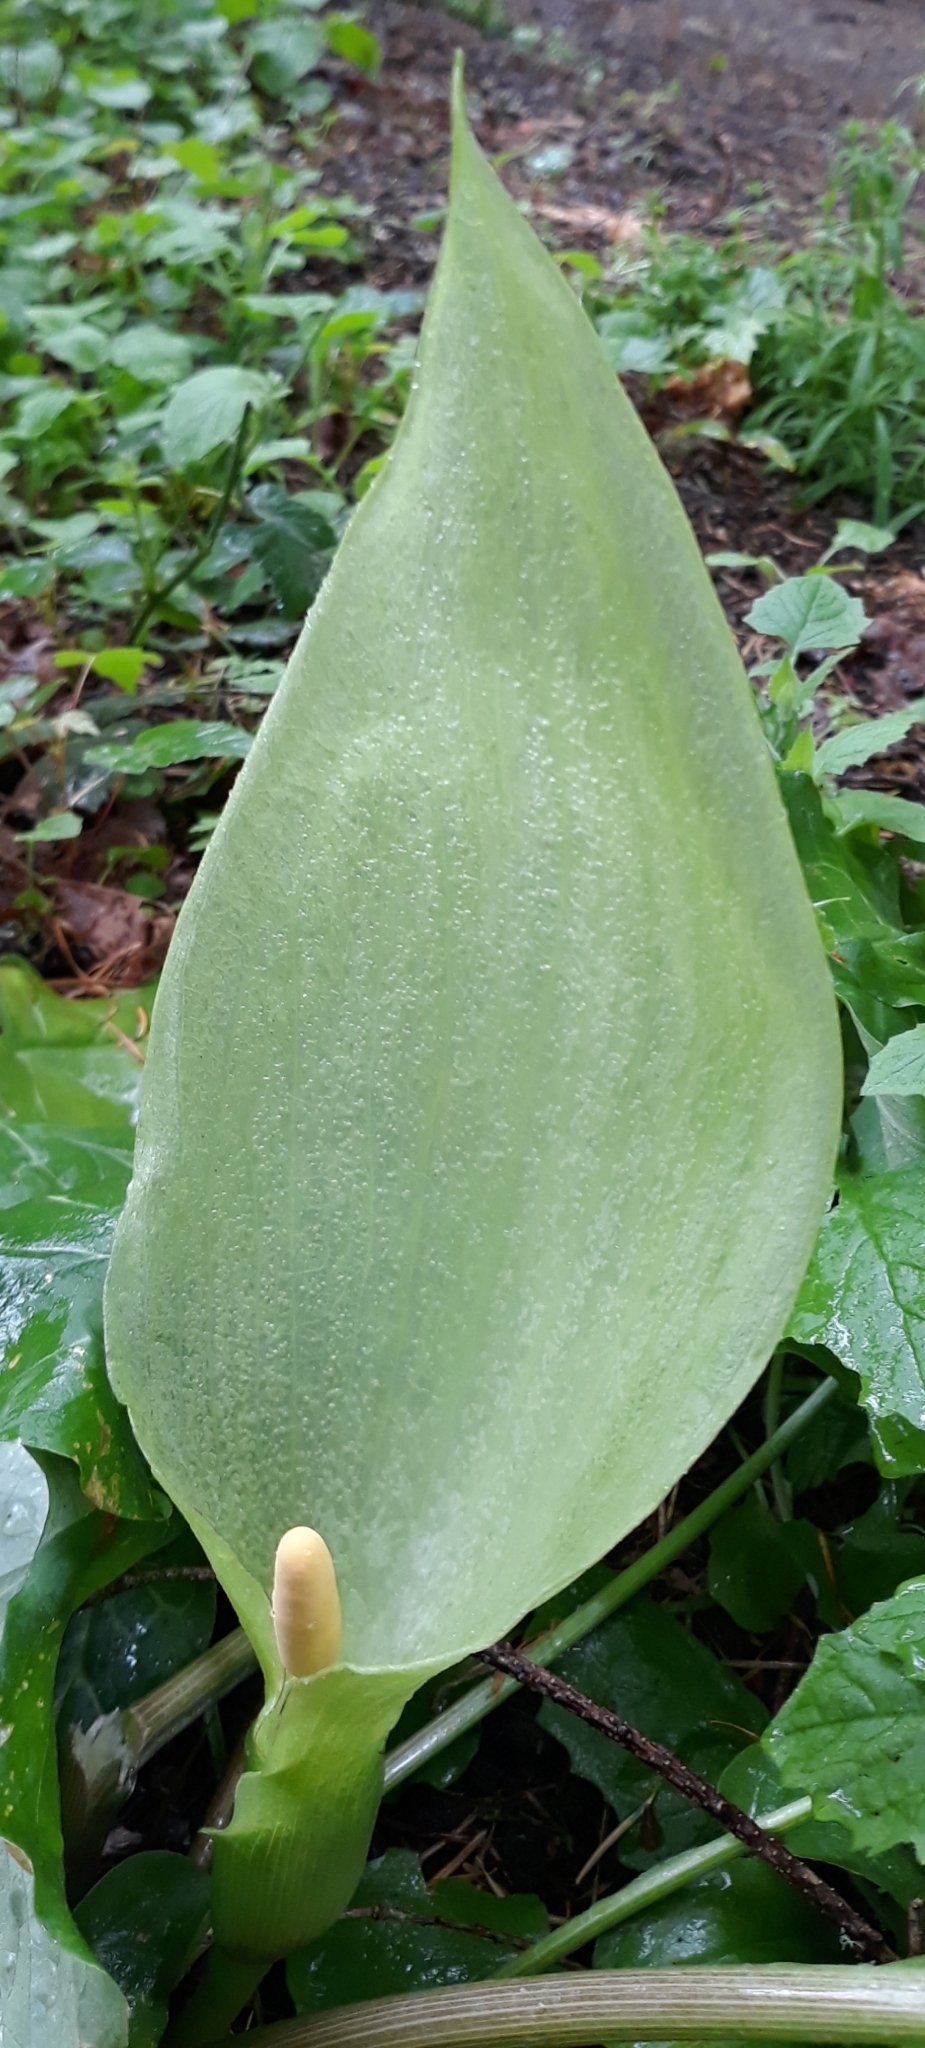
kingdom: Plantae
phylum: Tracheophyta
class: Liliopsida
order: Alismatales
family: Araceae
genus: Arum
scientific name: Arum italicum
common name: Italian lords-and-ladies
